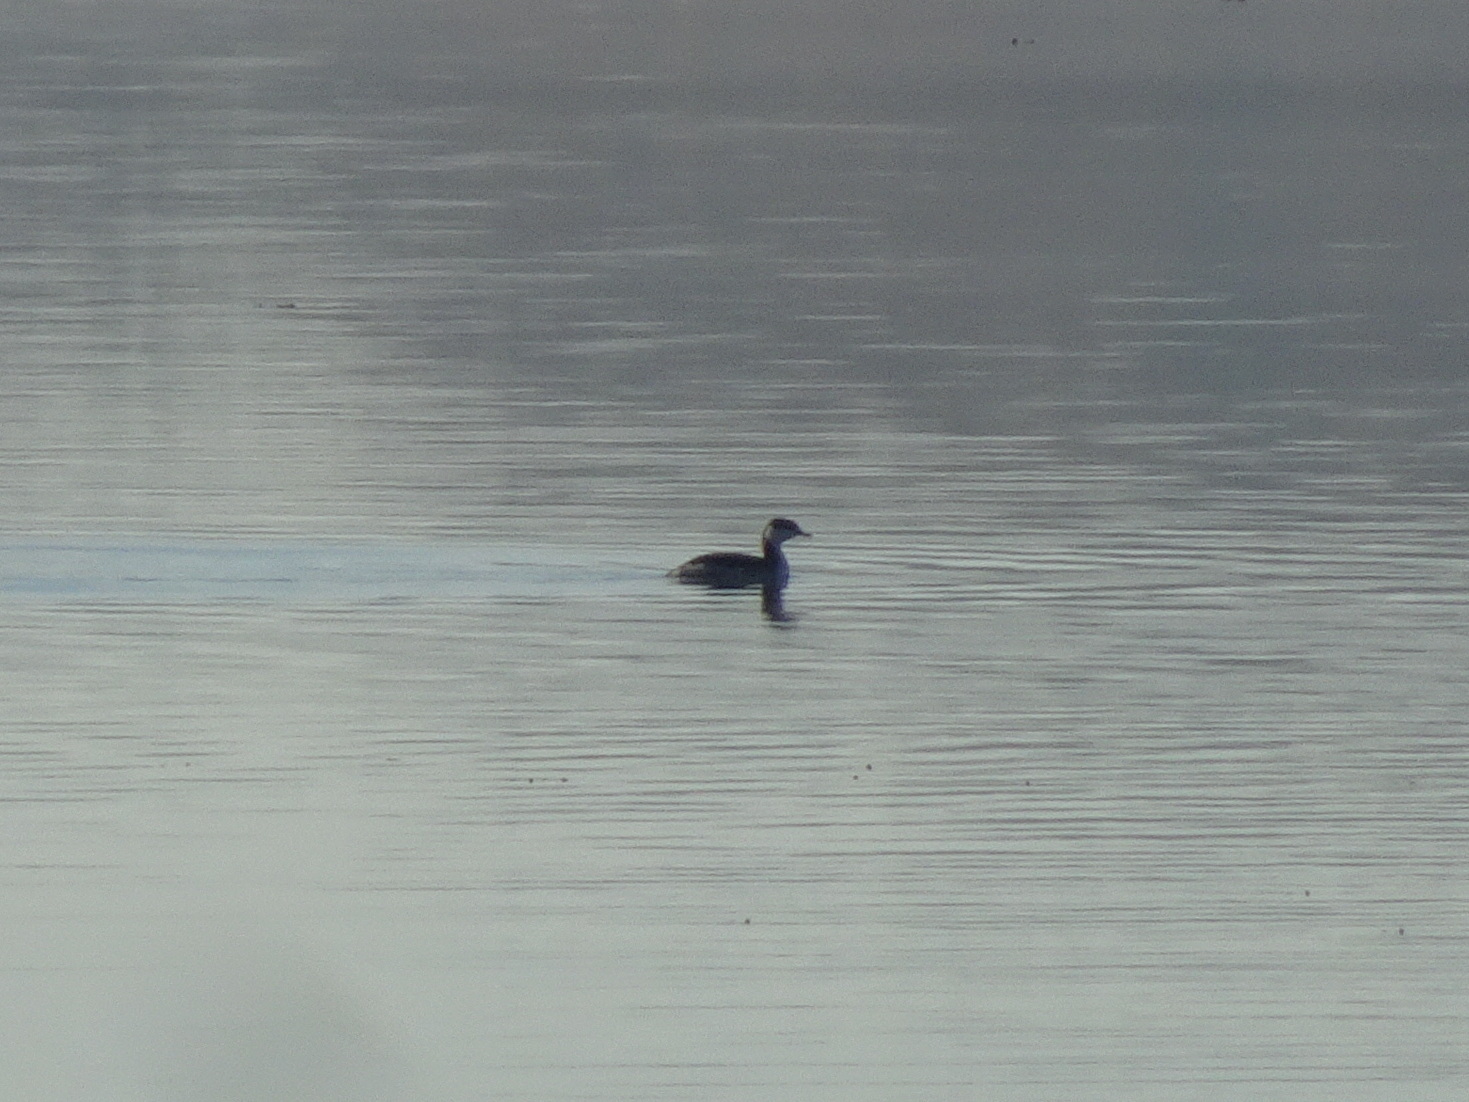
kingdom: Animalia
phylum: Chordata
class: Aves
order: Podicipediformes
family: Podicipedidae
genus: Podiceps
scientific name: Podiceps auritus
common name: Horned grebe
